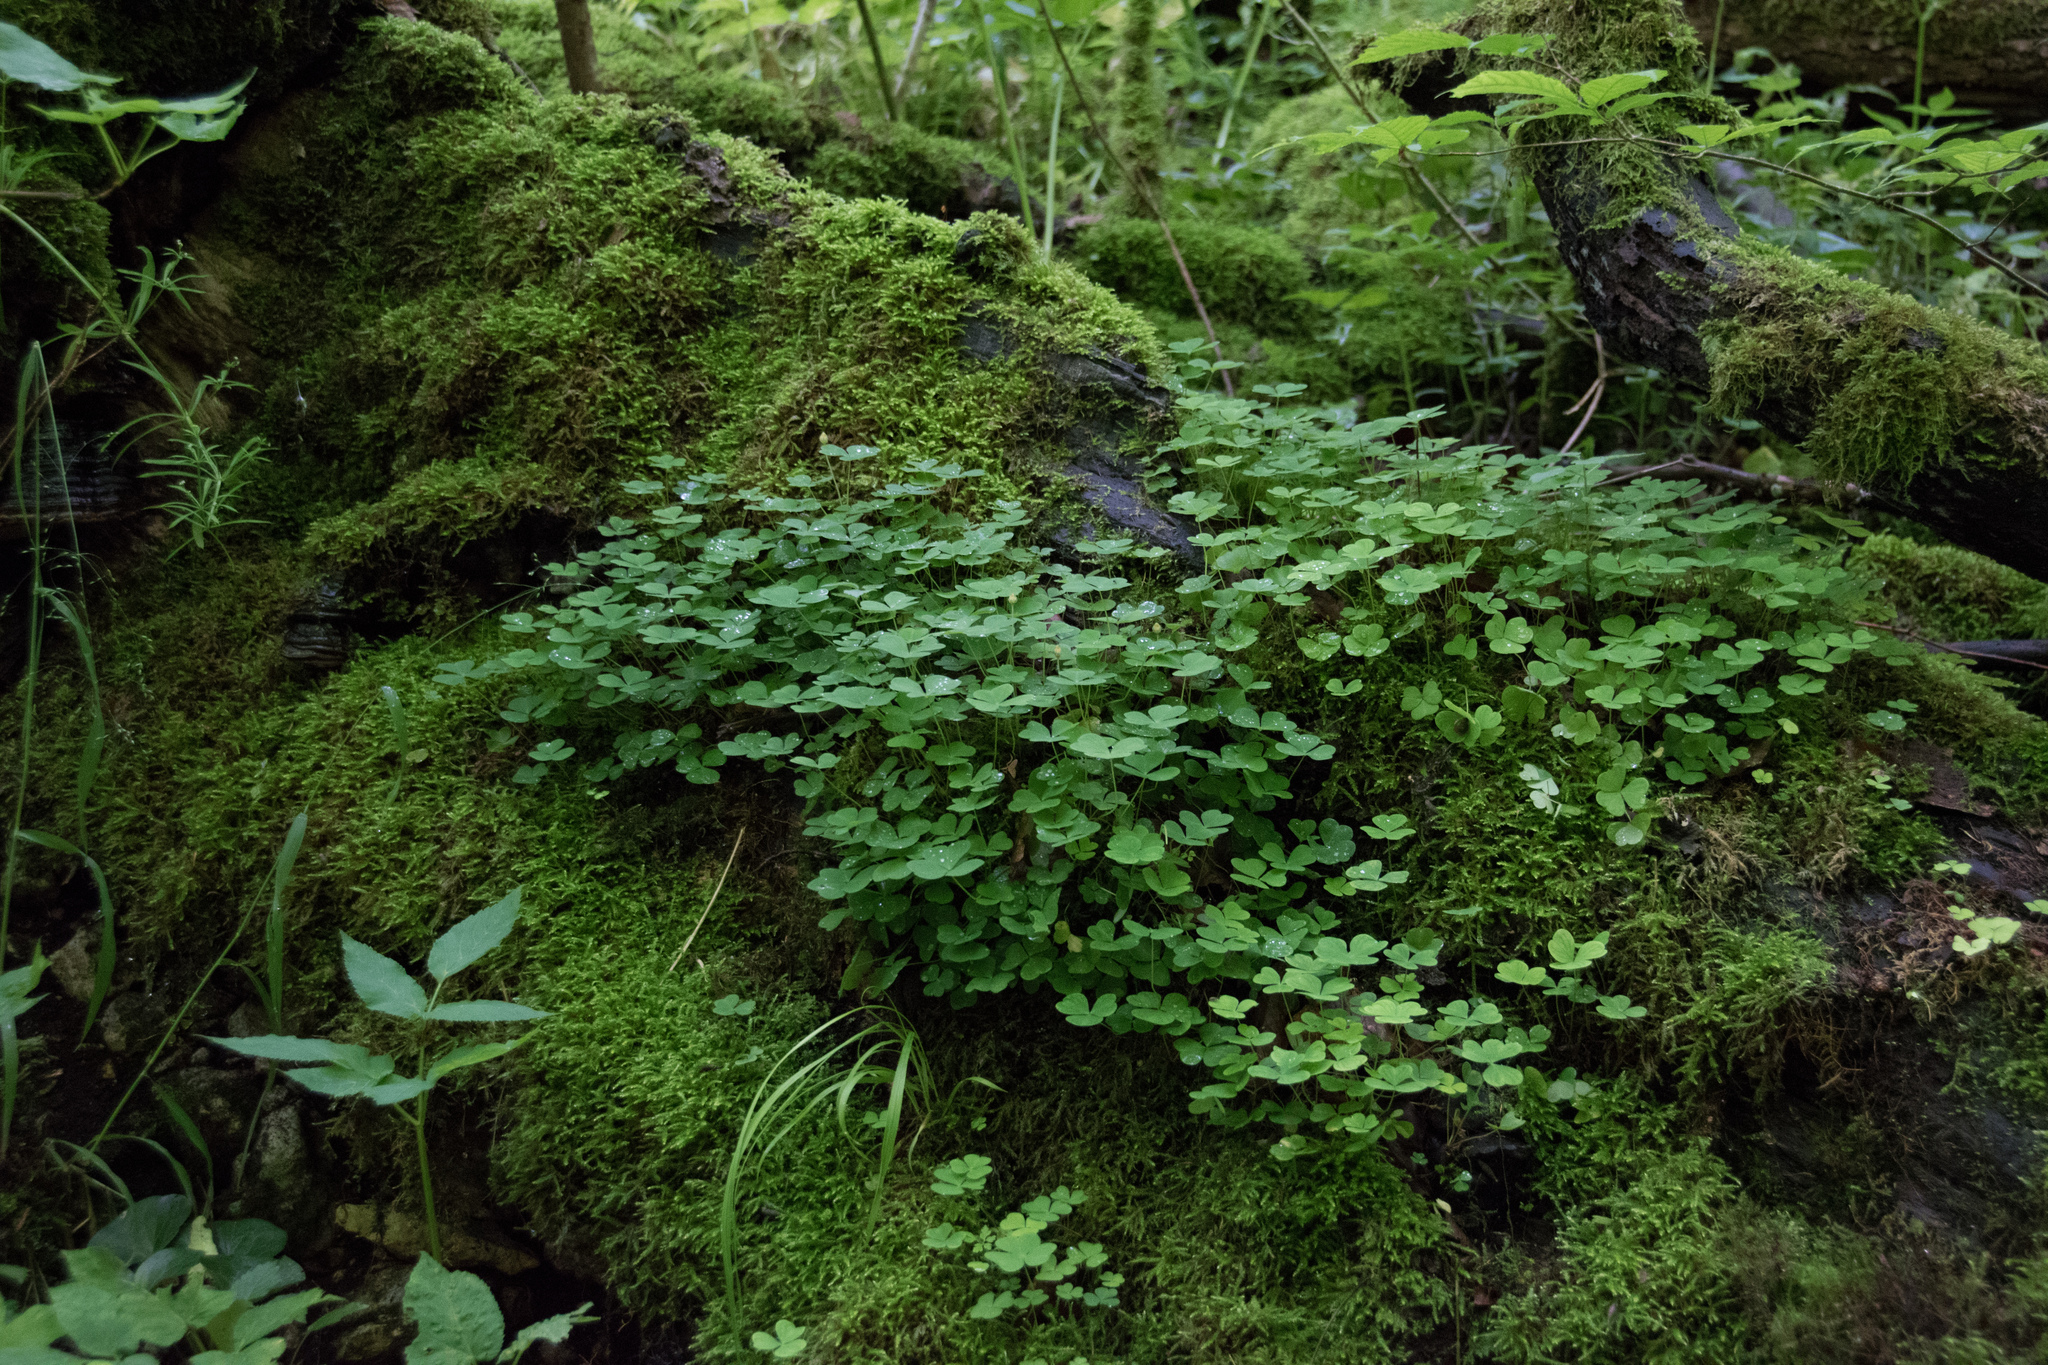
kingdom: Plantae
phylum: Tracheophyta
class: Magnoliopsida
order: Oxalidales
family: Oxalidaceae
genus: Oxalis
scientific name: Oxalis acetosella
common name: Wood-sorrel
